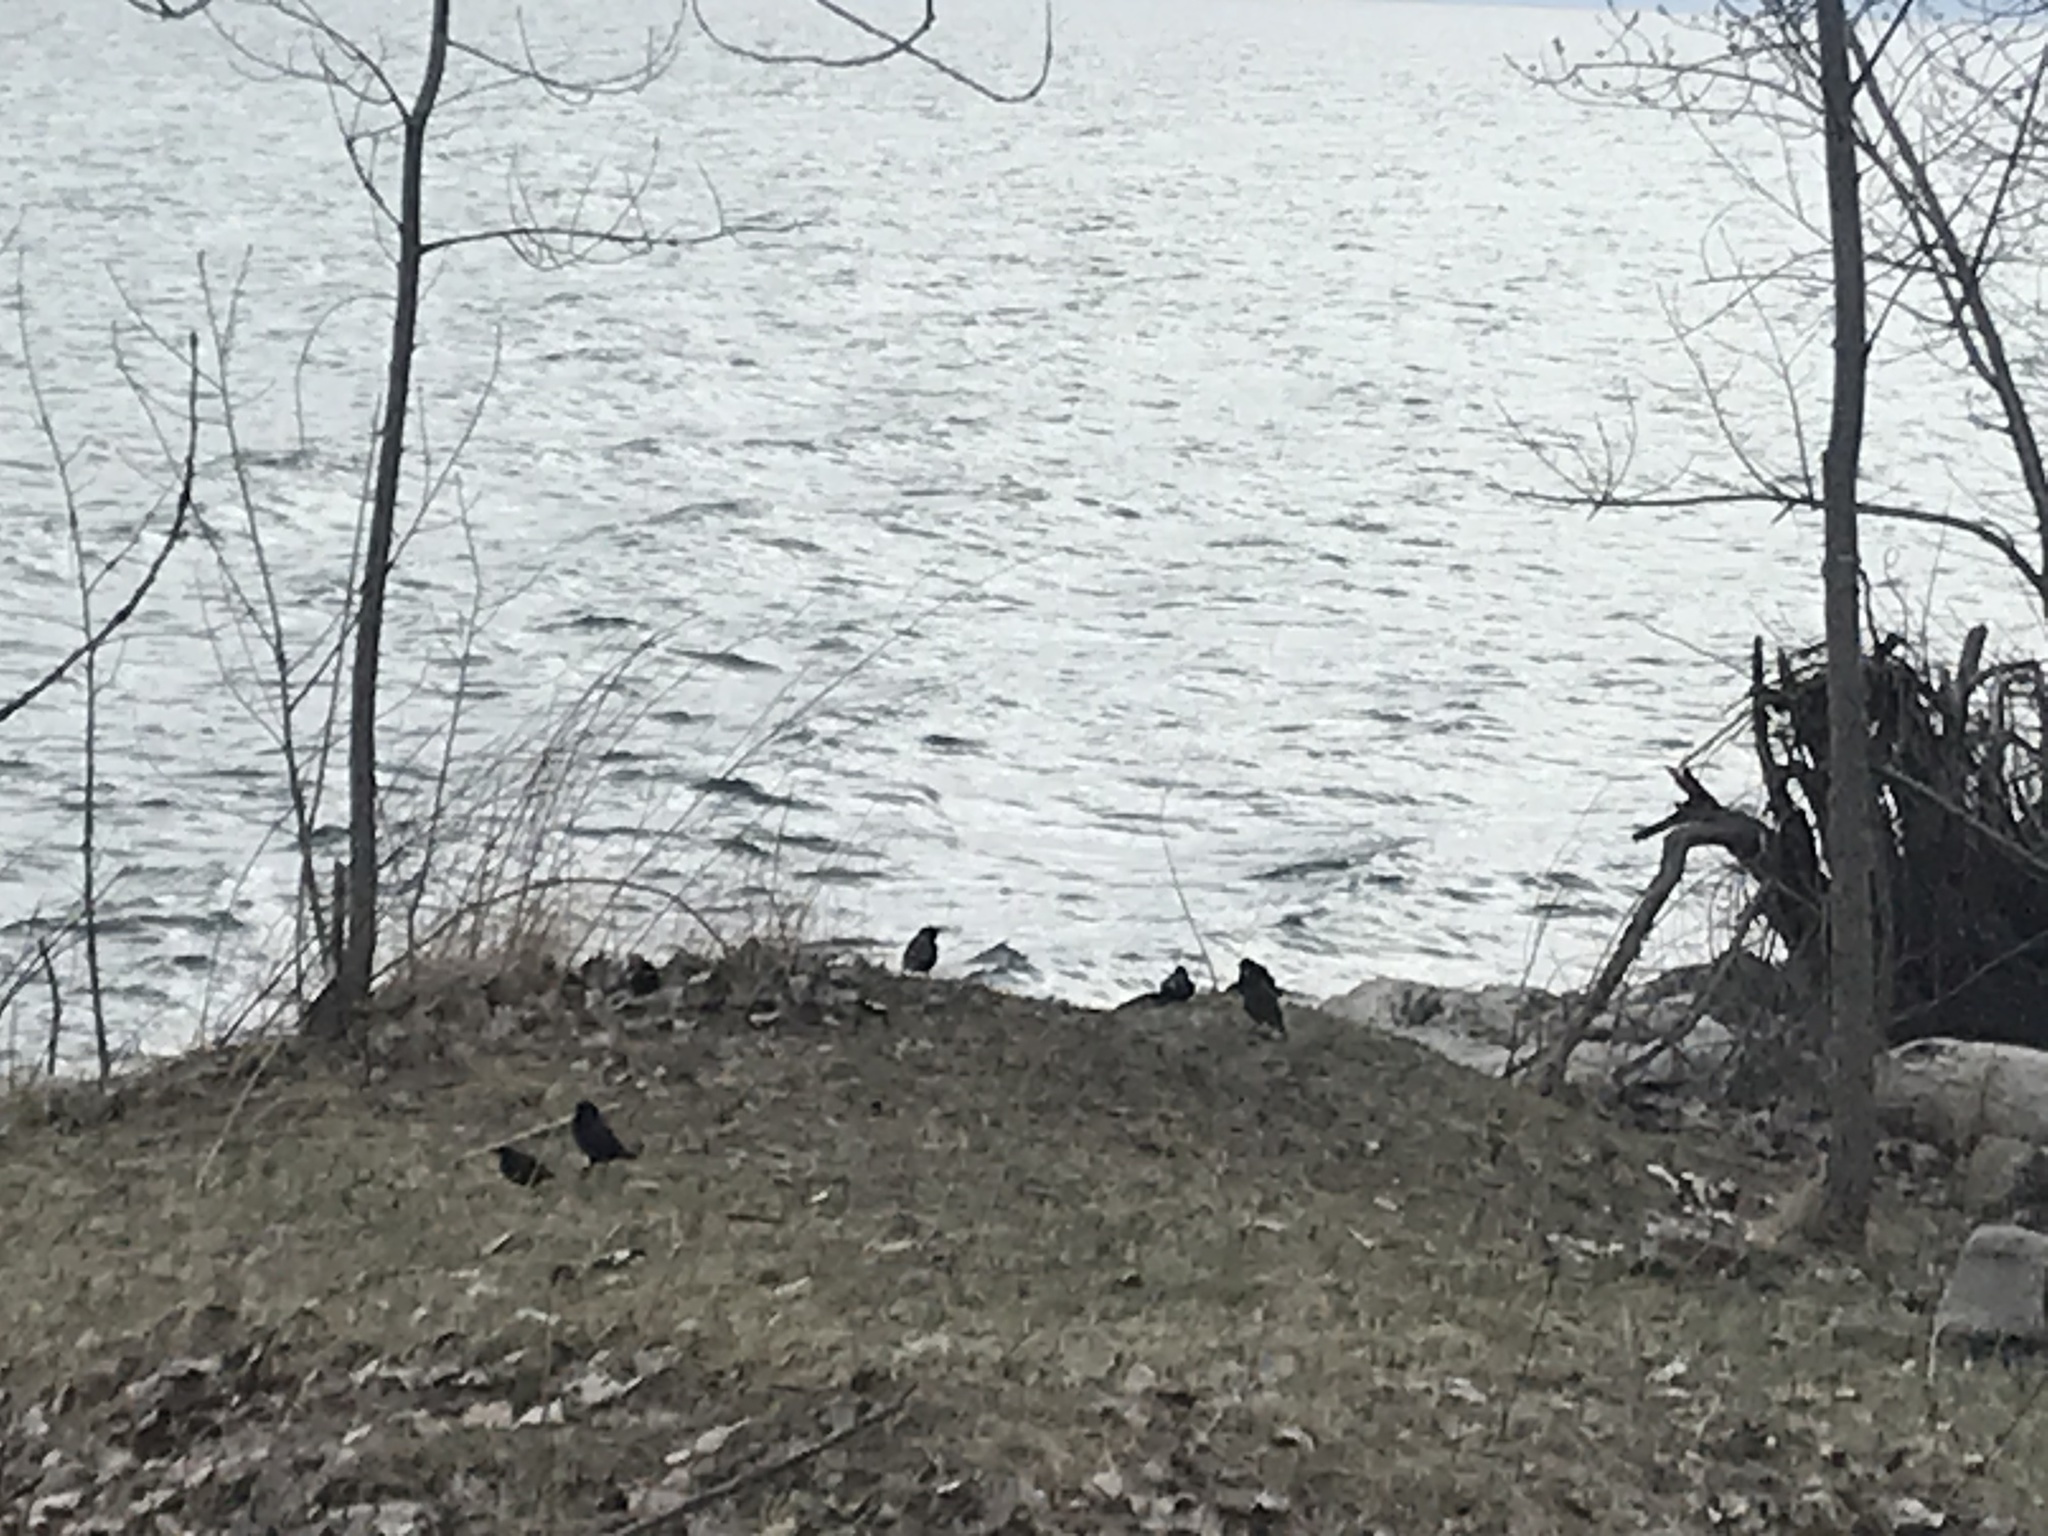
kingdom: Animalia
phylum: Chordata
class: Aves
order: Passeriformes
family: Sturnidae
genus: Sturnus
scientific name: Sturnus vulgaris
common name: Common starling
